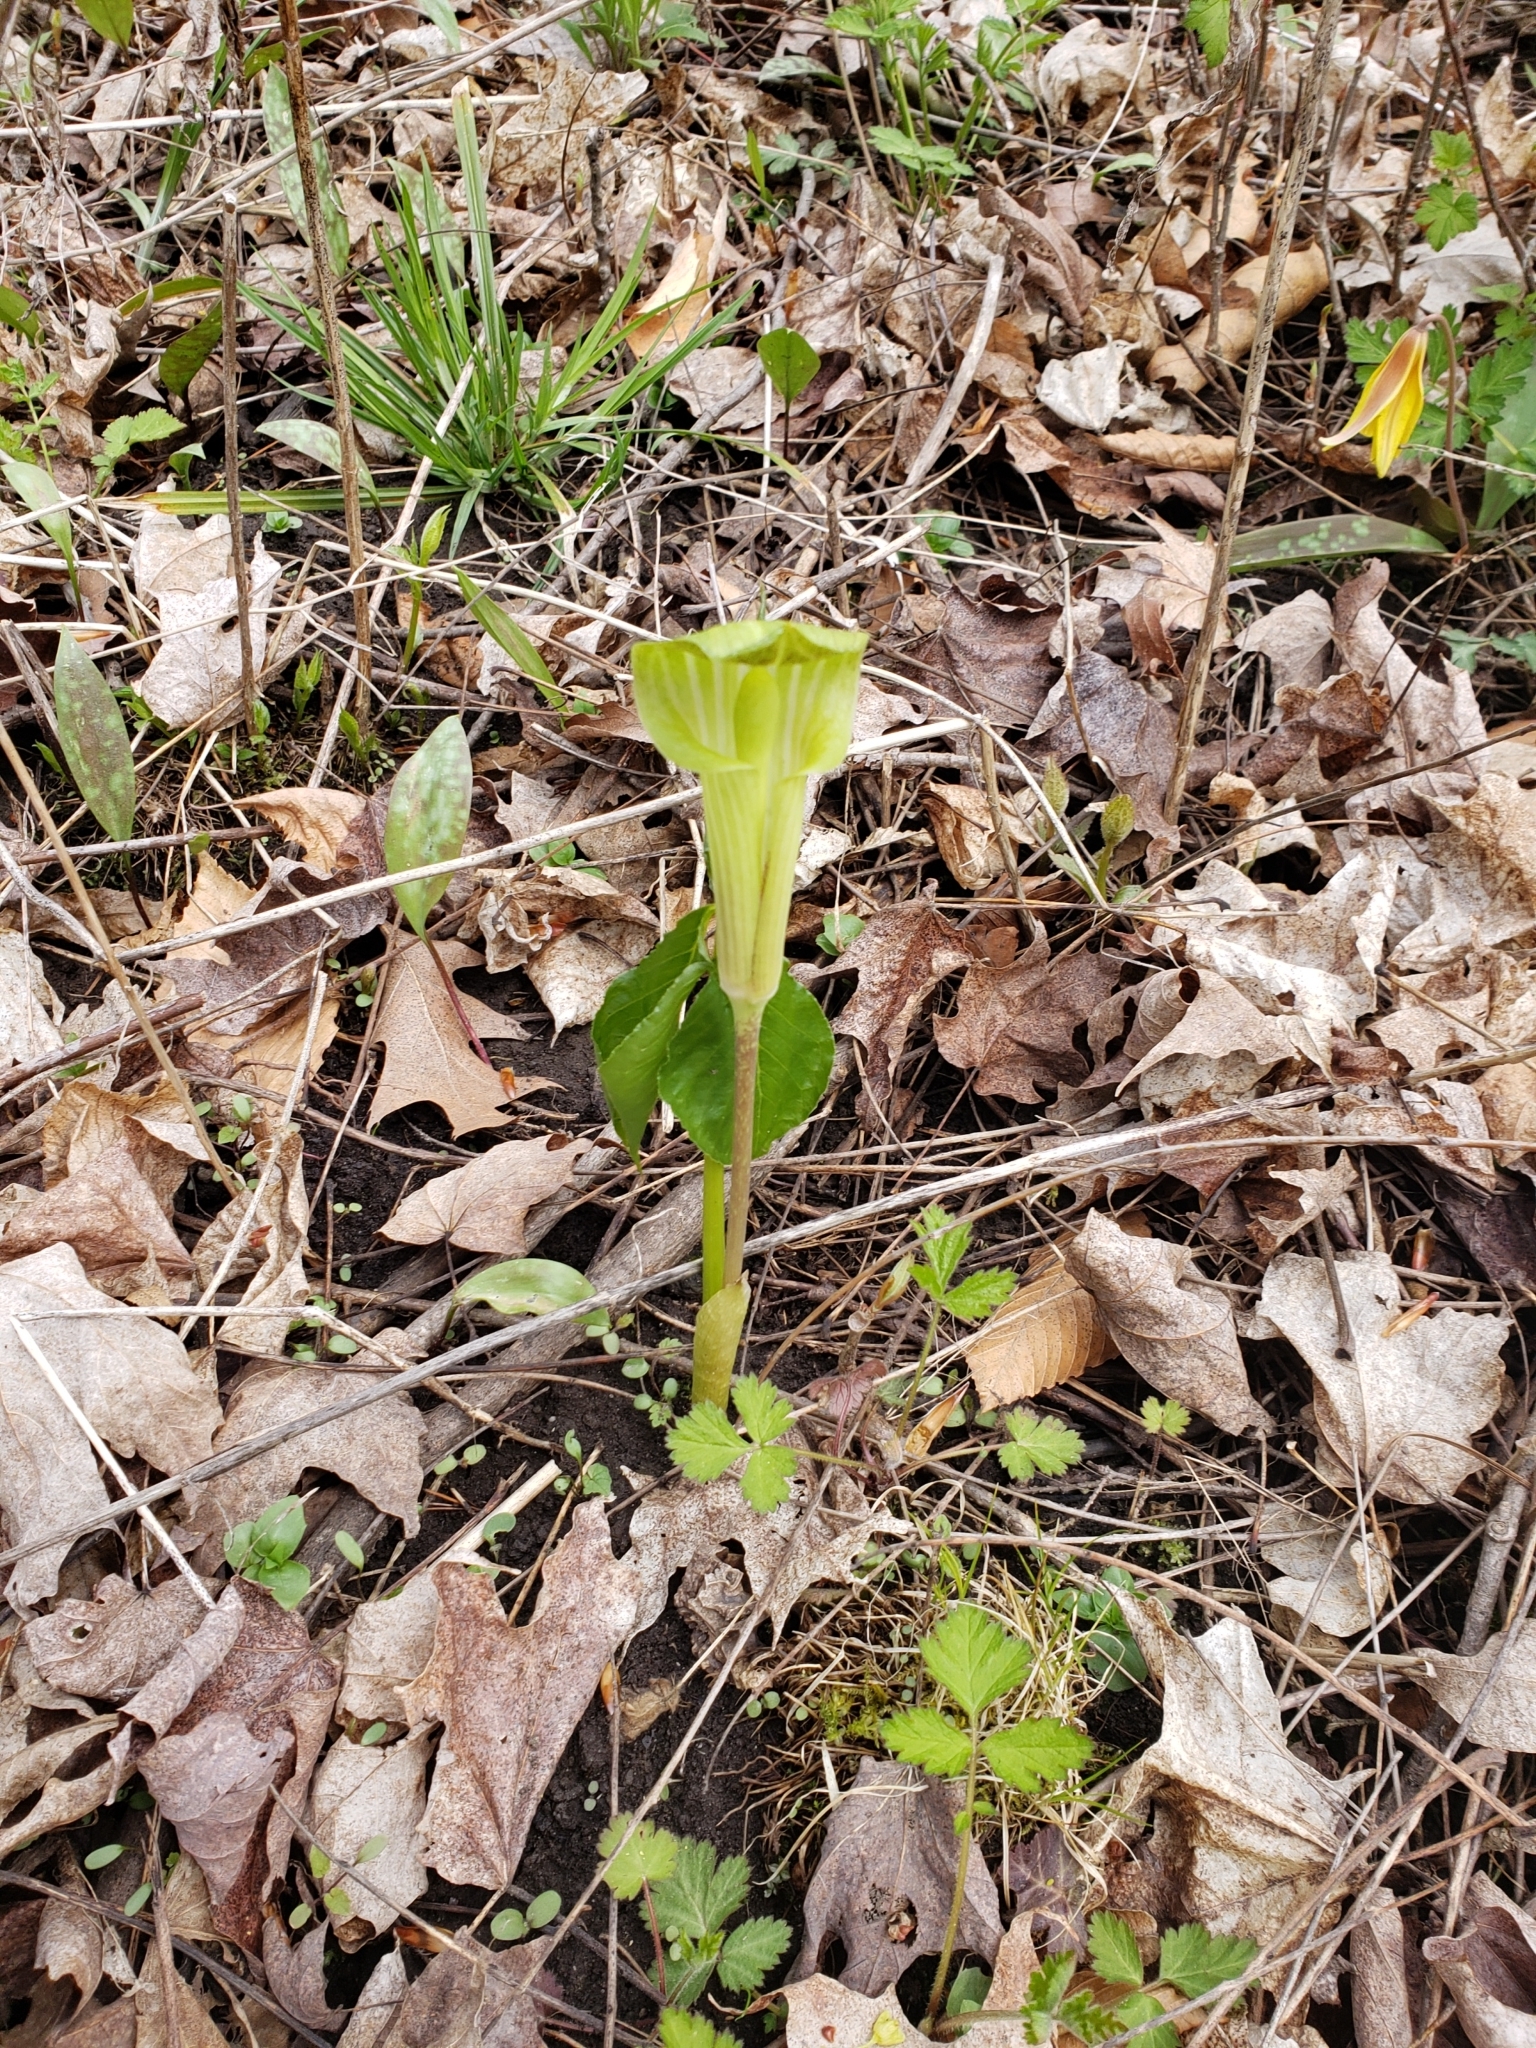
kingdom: Plantae
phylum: Tracheophyta
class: Liliopsida
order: Alismatales
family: Araceae
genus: Arisaema
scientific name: Arisaema triphyllum
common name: Jack-in-the-pulpit
